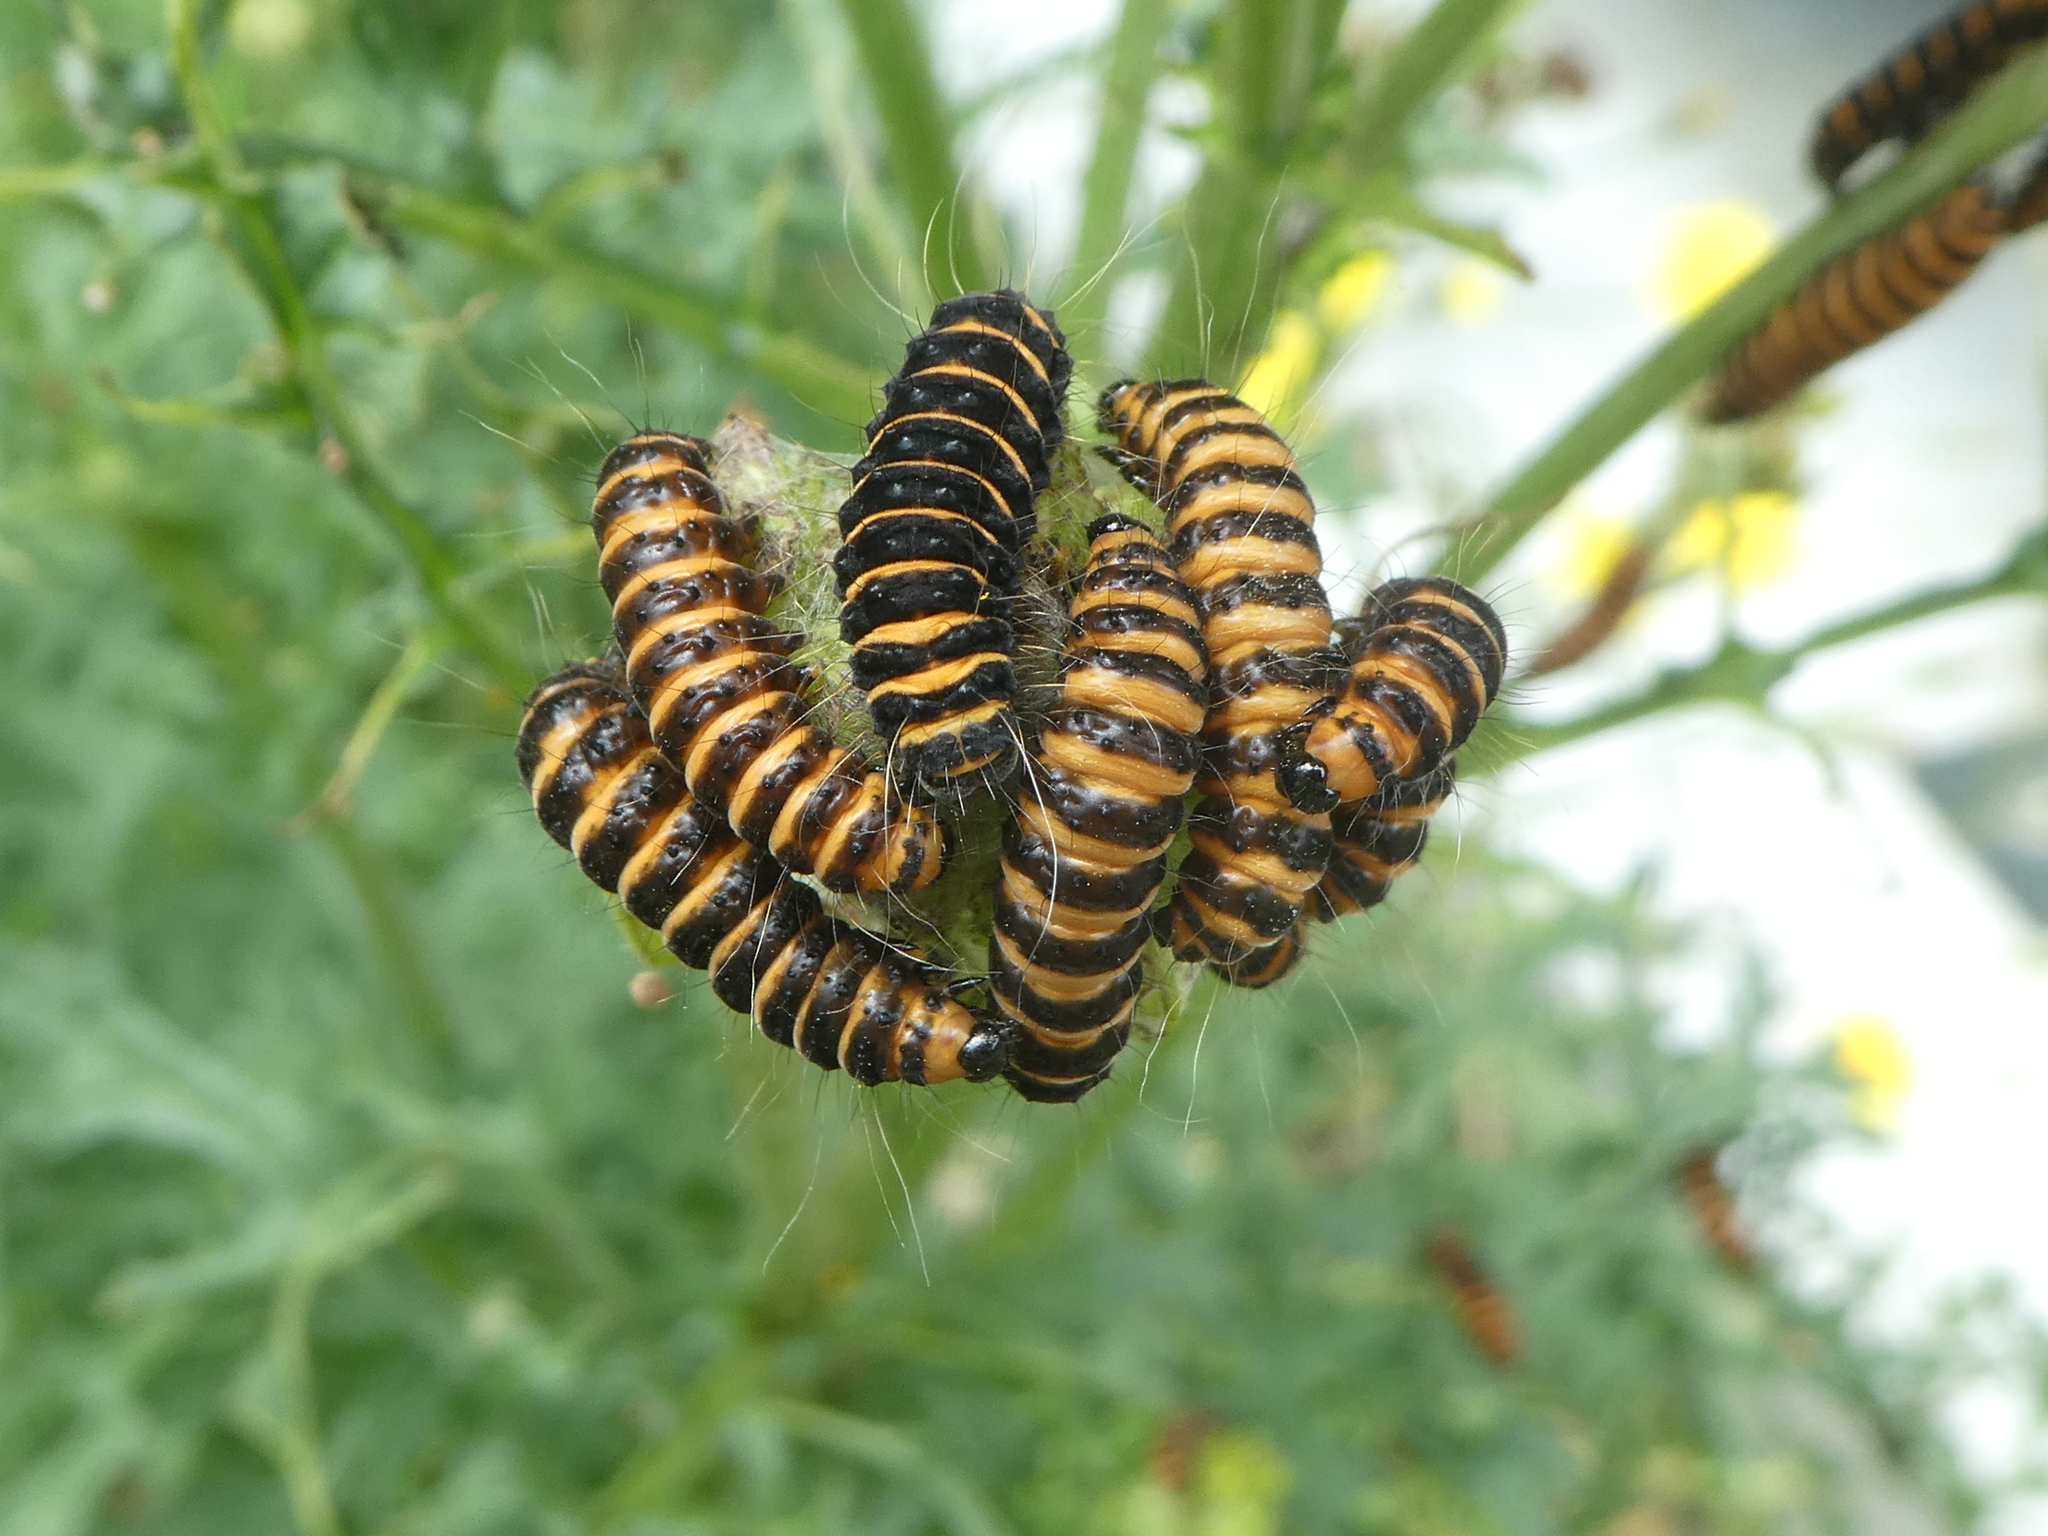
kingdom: Animalia
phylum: Arthropoda
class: Insecta
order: Lepidoptera
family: Erebidae
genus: Tyria
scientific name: Tyria jacobaeae
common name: Cinnabar
